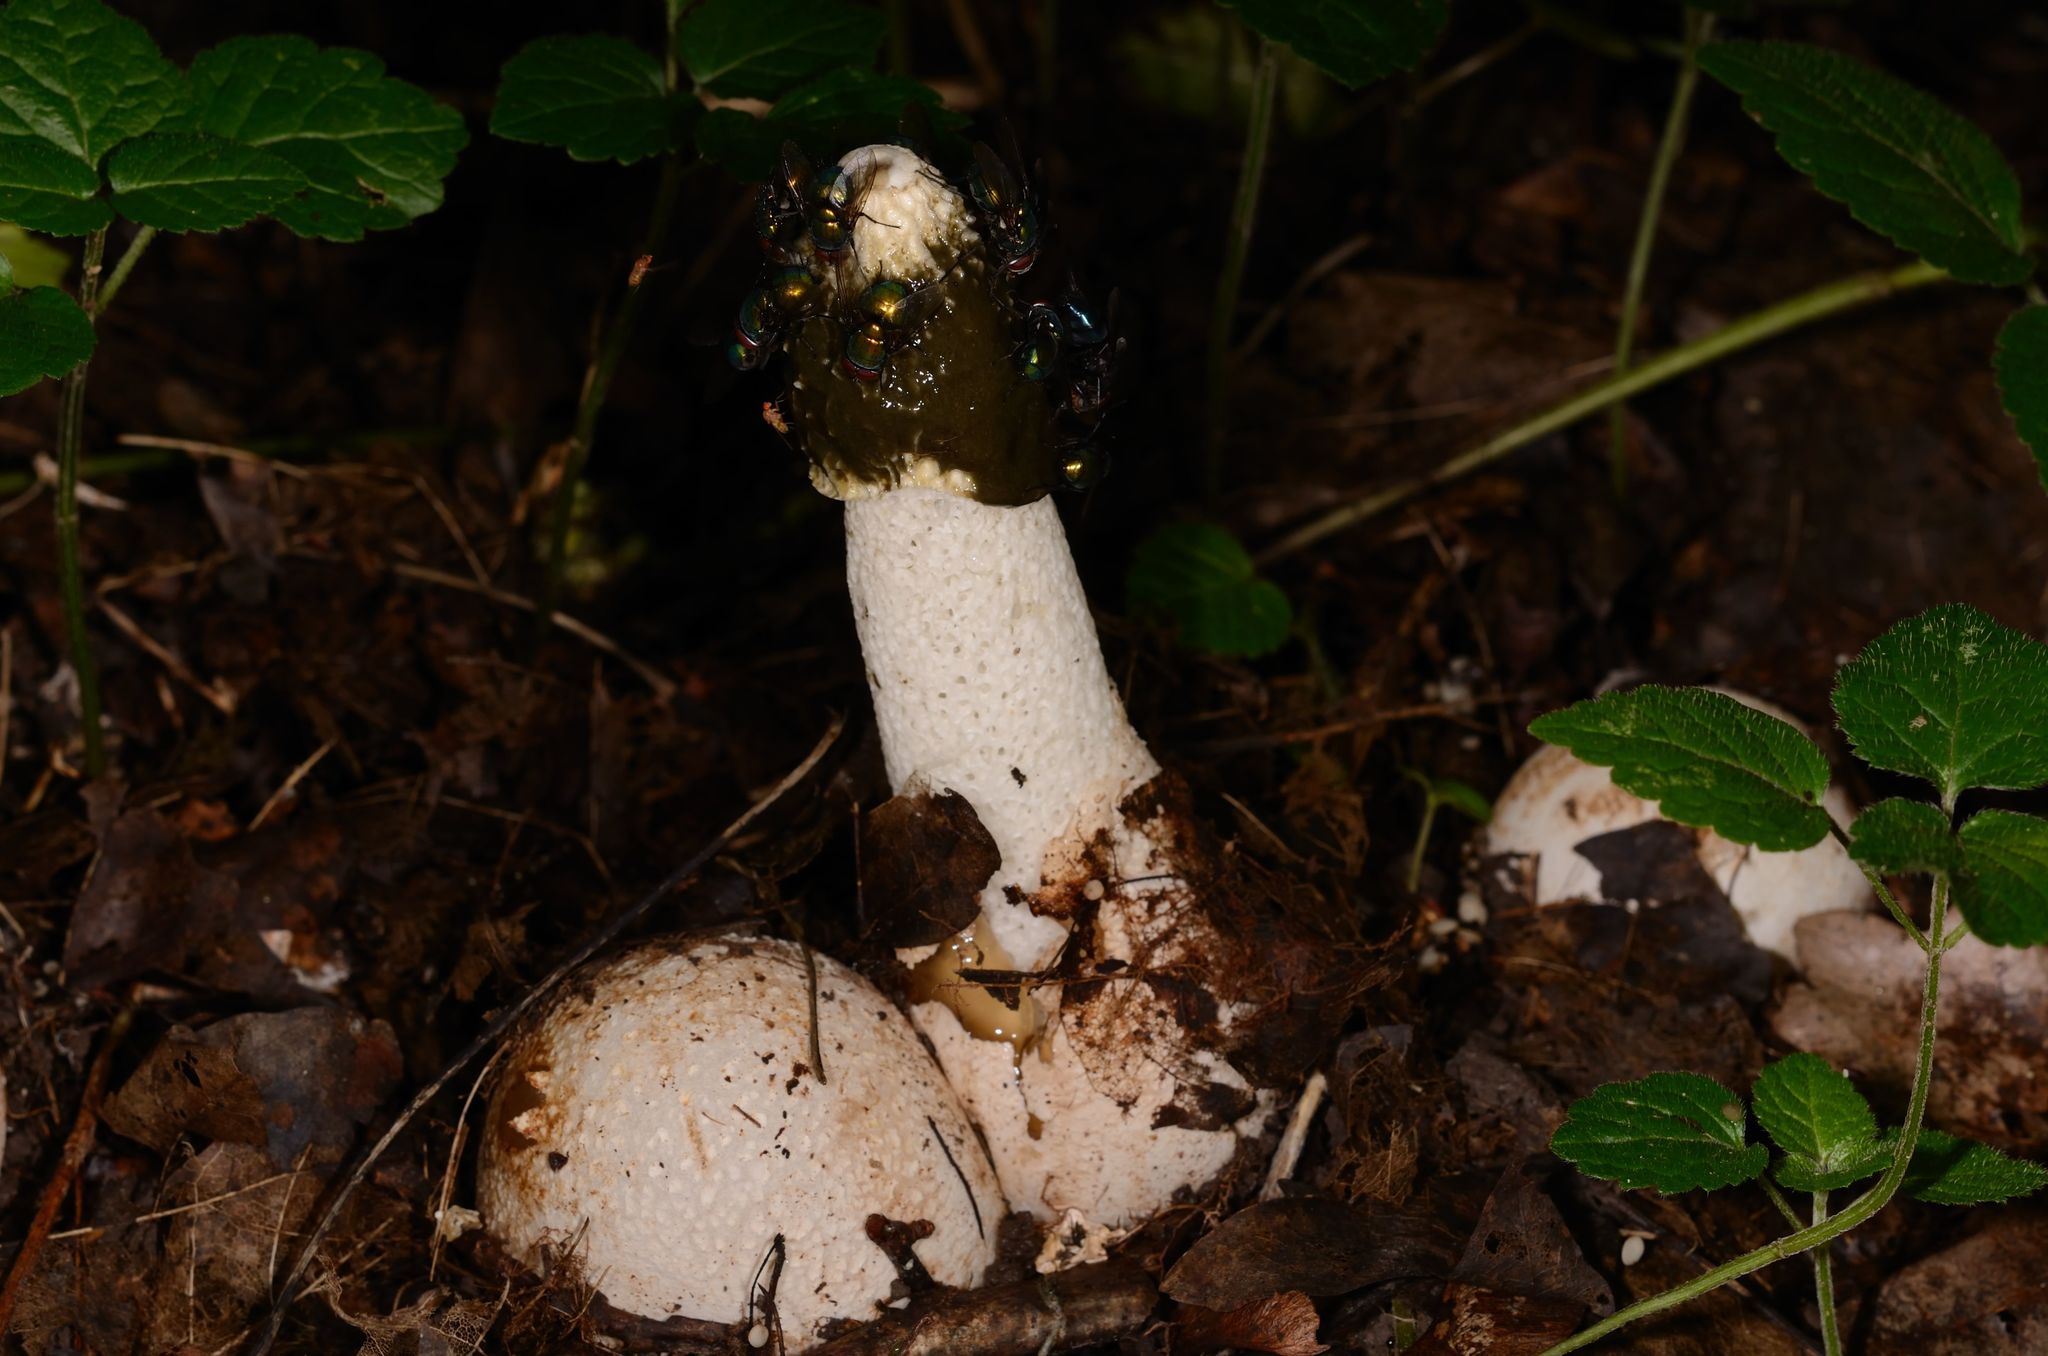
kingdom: Fungi
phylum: Basidiomycota
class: Agaricomycetes
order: Phallales
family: Phallaceae
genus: Phallus
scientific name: Phallus impudicus
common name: Common stinkhorn
